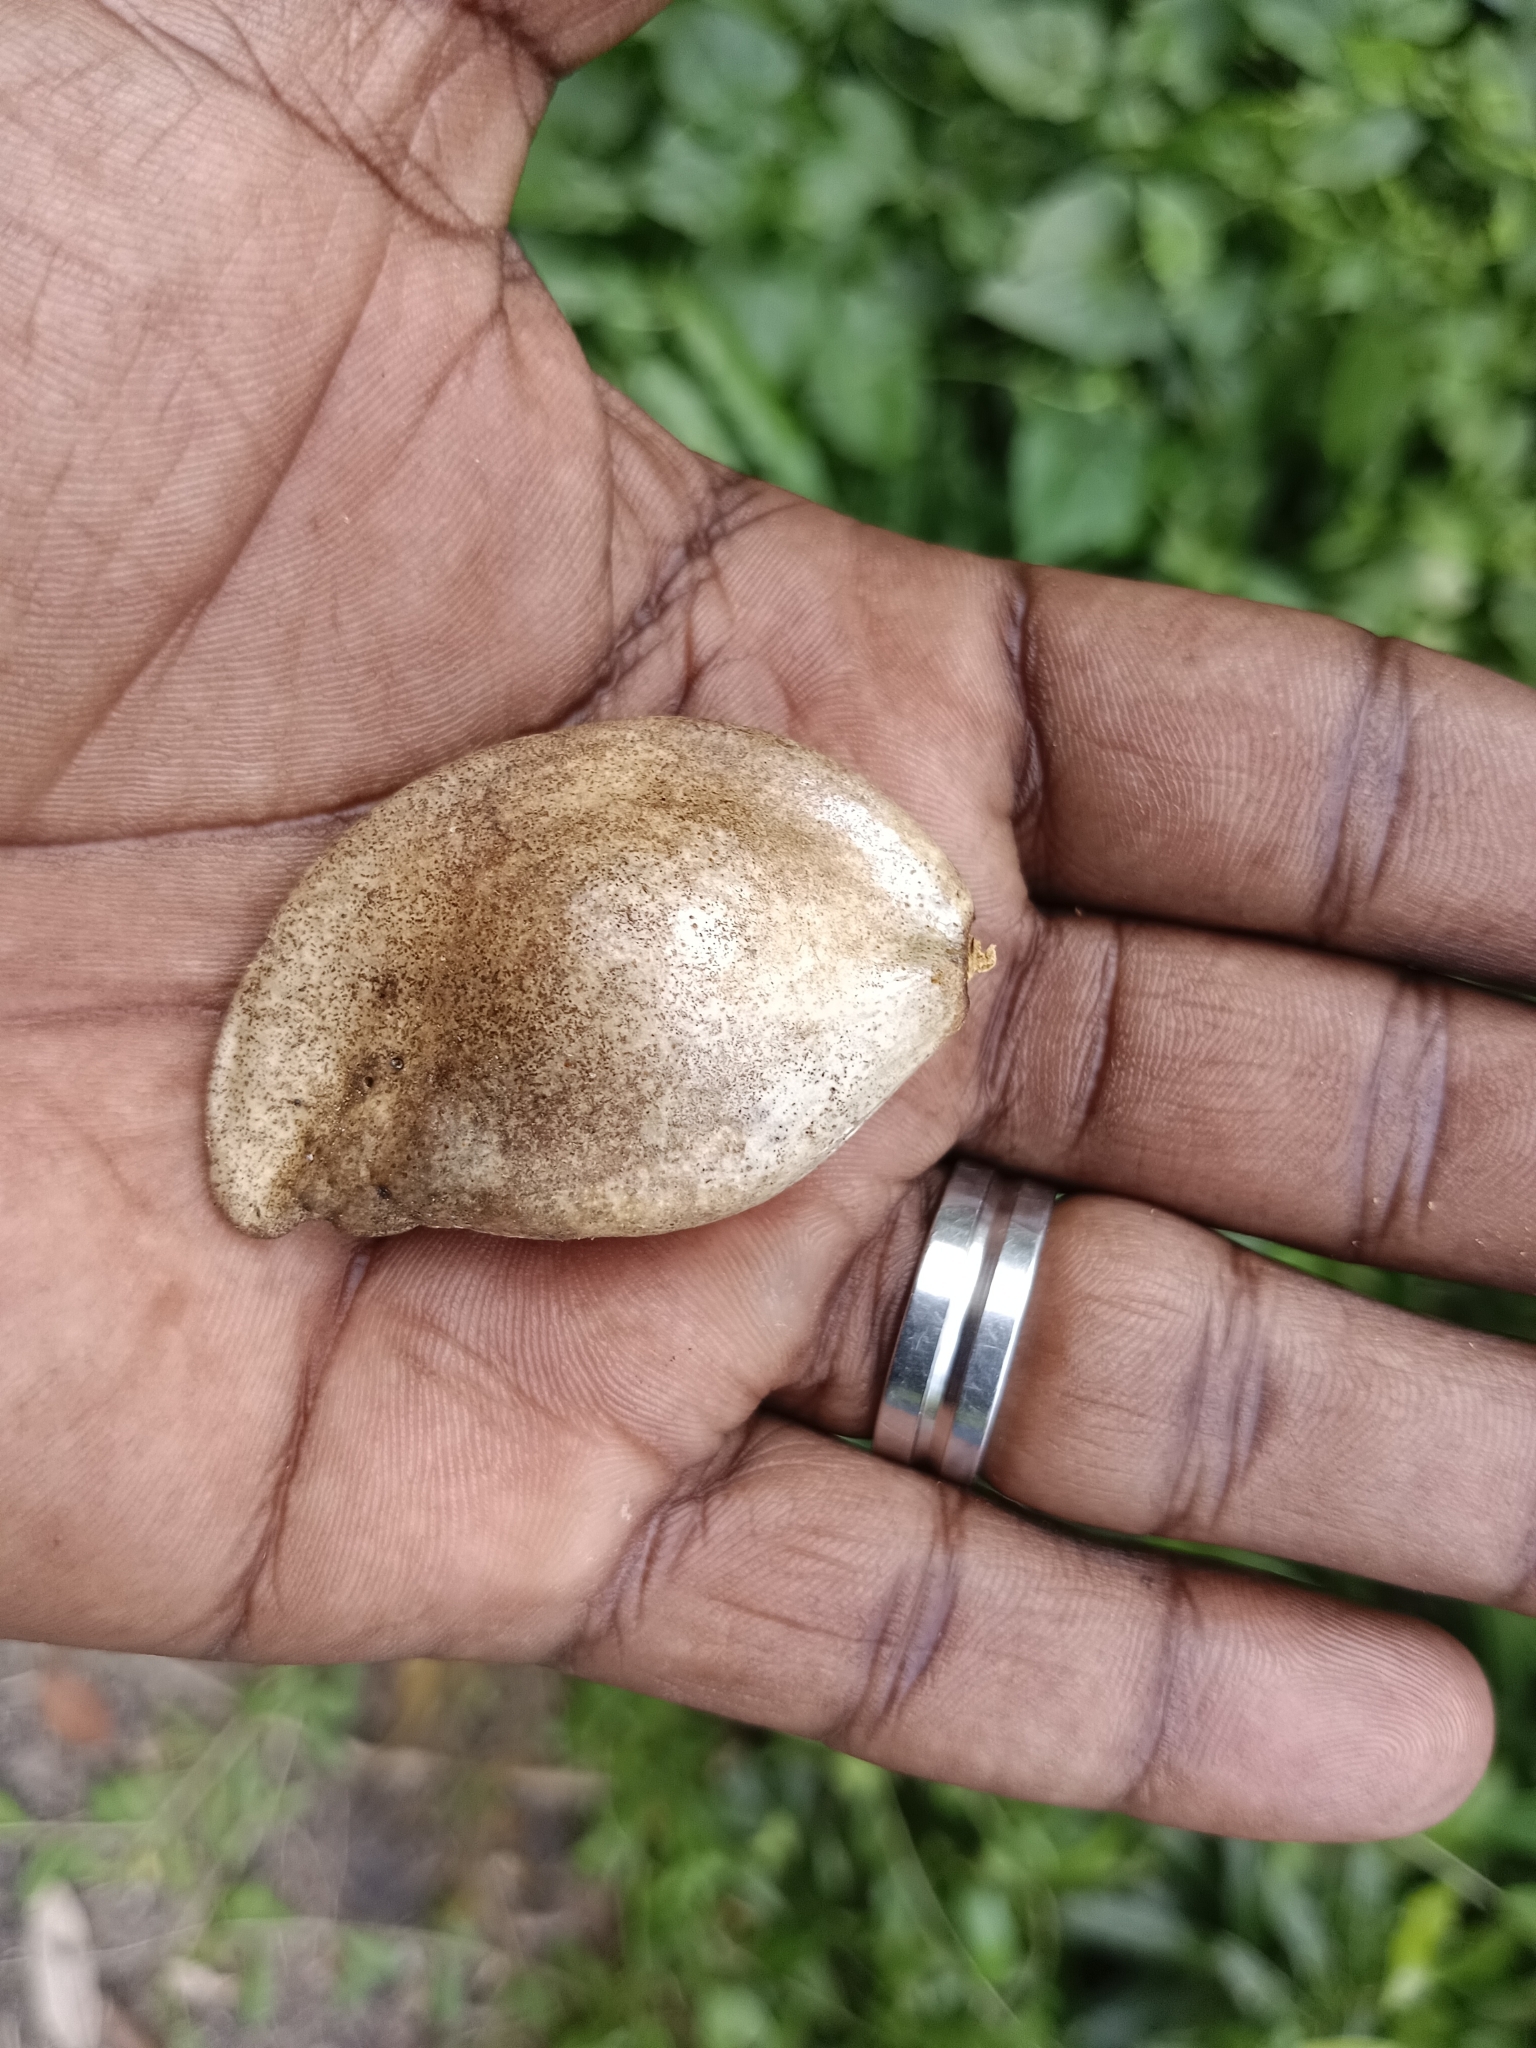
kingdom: Plantae
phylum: Tracheophyta
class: Magnoliopsida
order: Sapindales
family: Simaroubaceae
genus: Samadera
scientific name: Samadera indica
